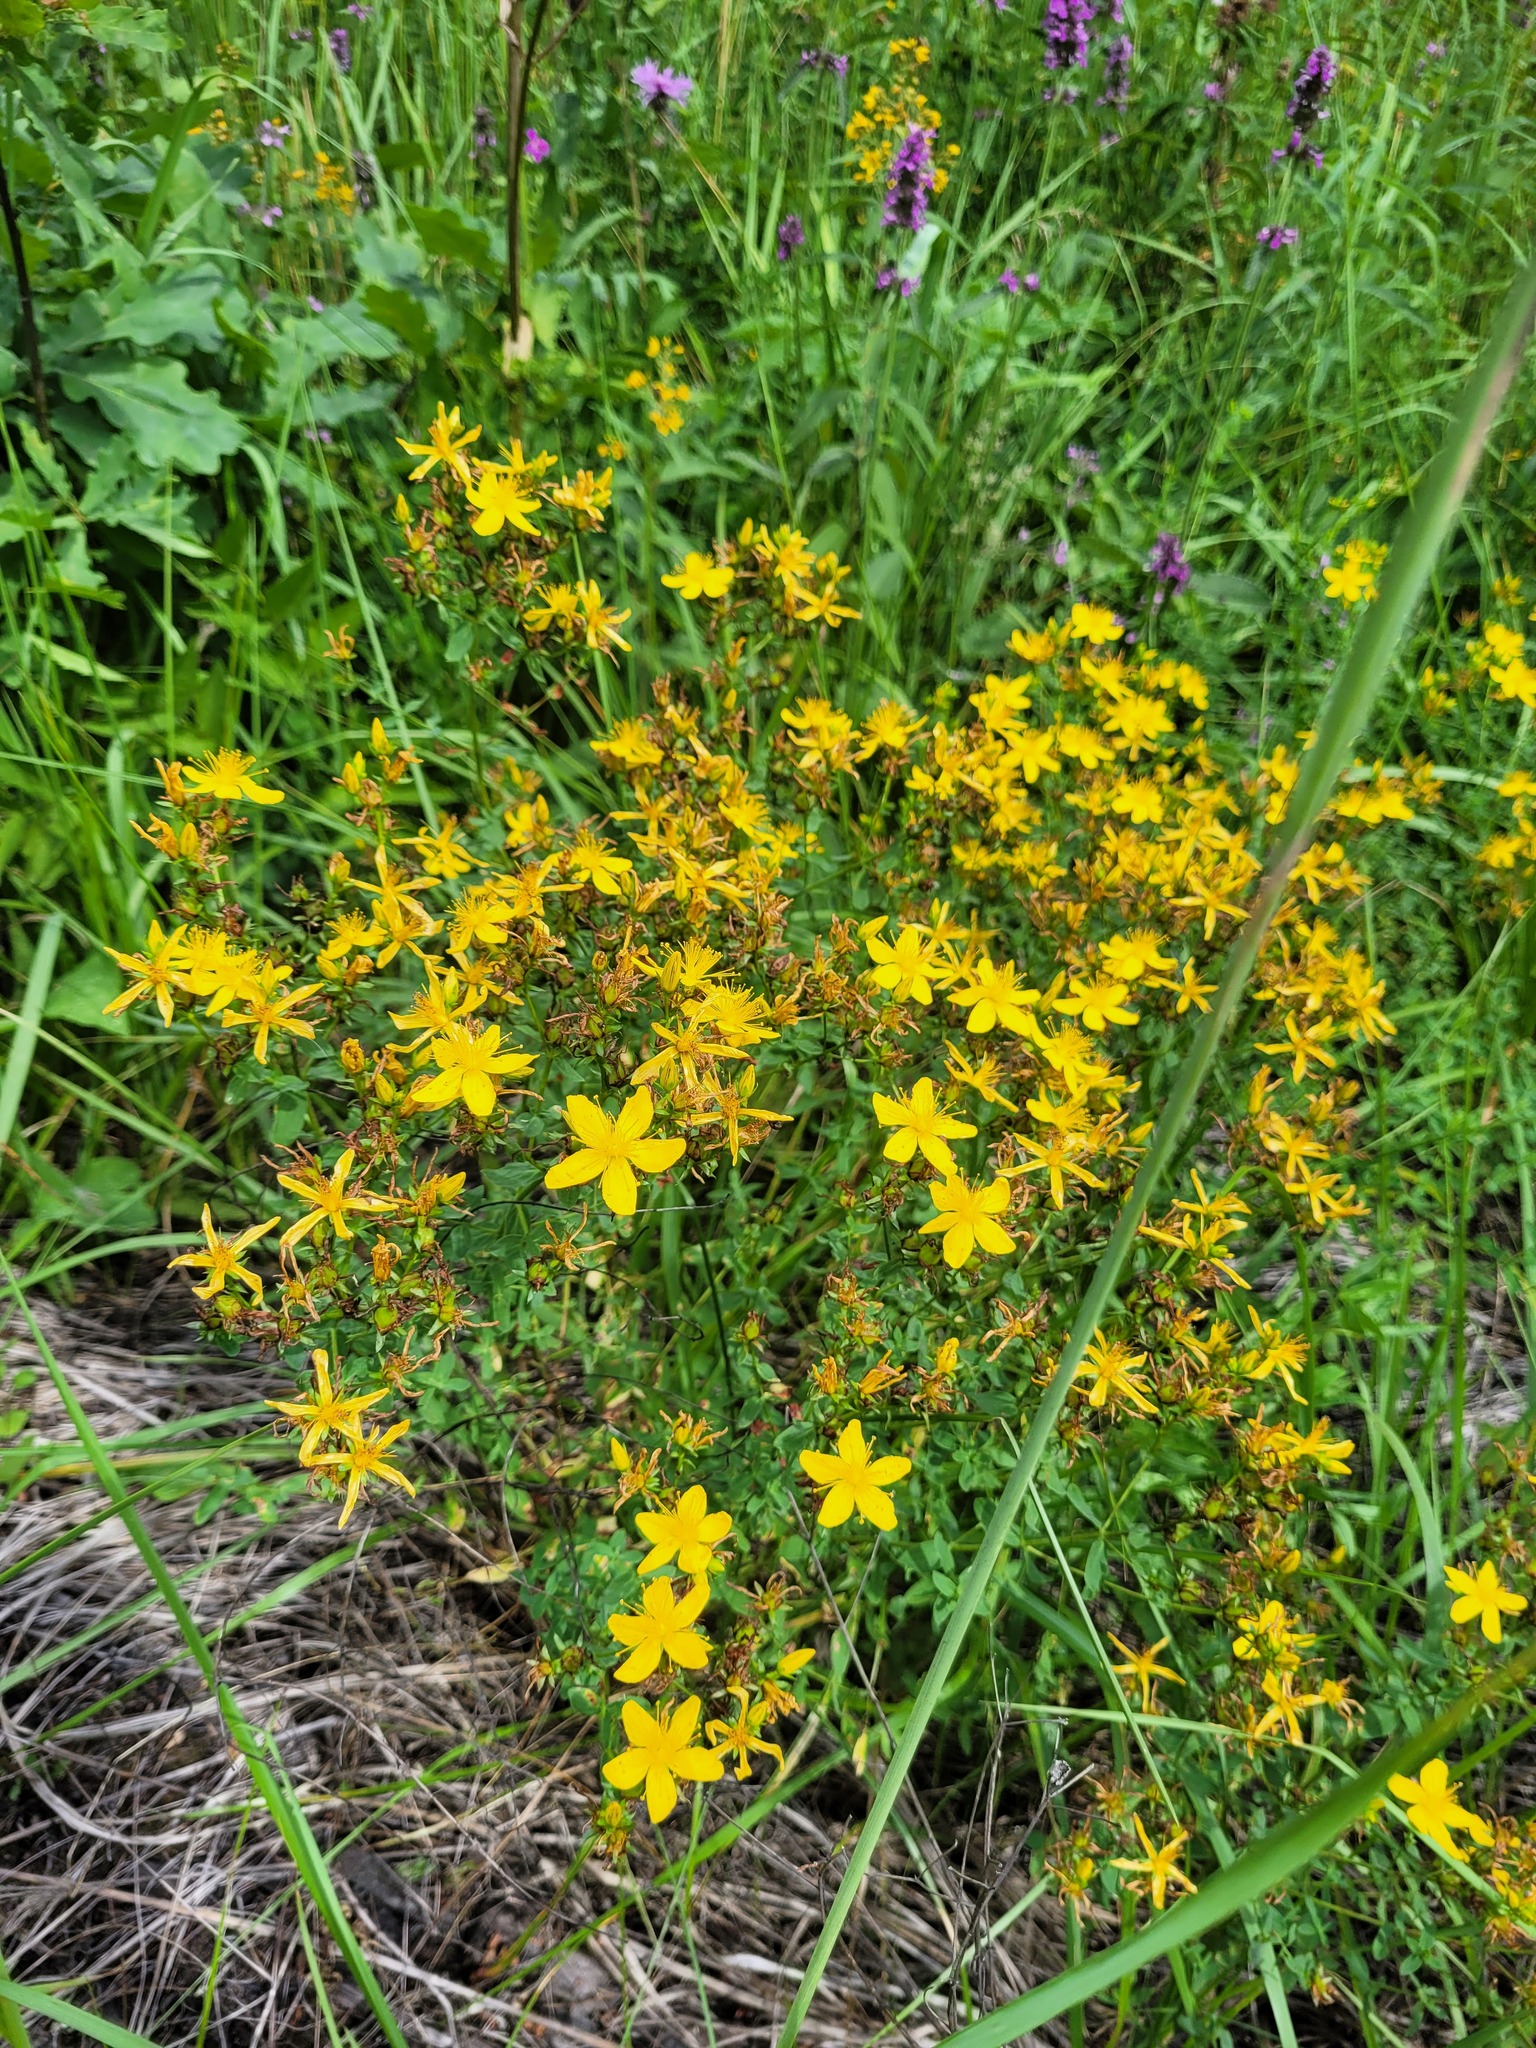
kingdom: Plantae
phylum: Tracheophyta
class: Magnoliopsida
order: Malpighiales
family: Hypericaceae
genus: Hypericum
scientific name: Hypericum perforatum
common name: Common st. johnswort
